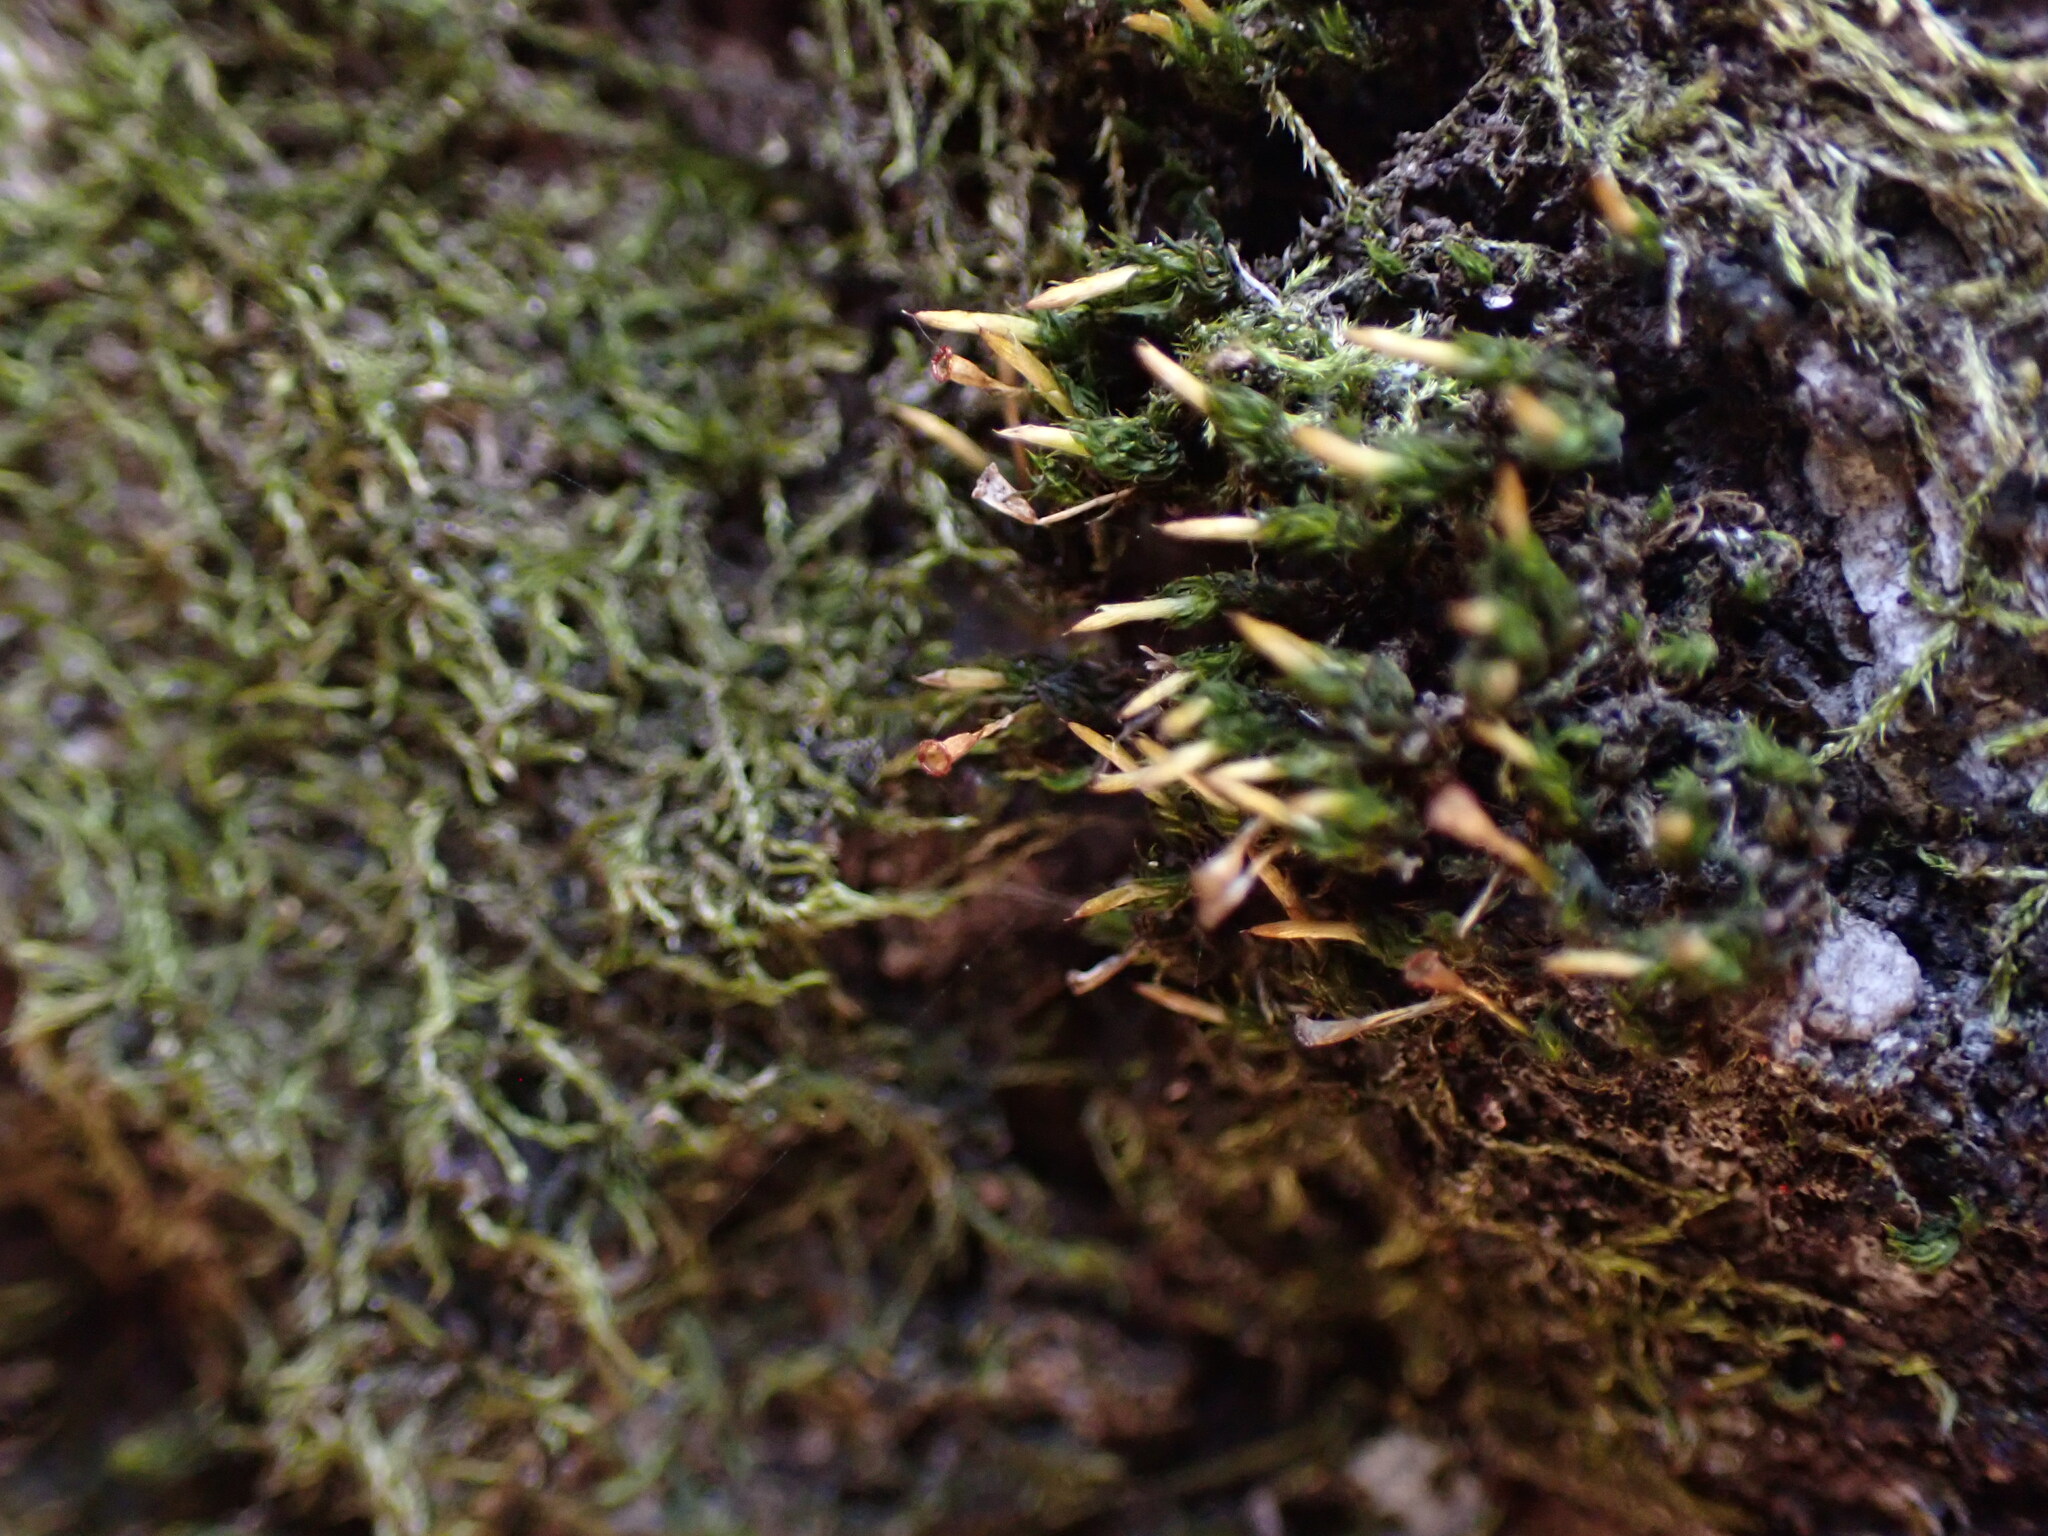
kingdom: Plantae
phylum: Bryophyta
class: Bryopsida
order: Dicranales
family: Rhabdoweisiaceae
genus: Glyphomitrium
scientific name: Glyphomitrium humillimum
